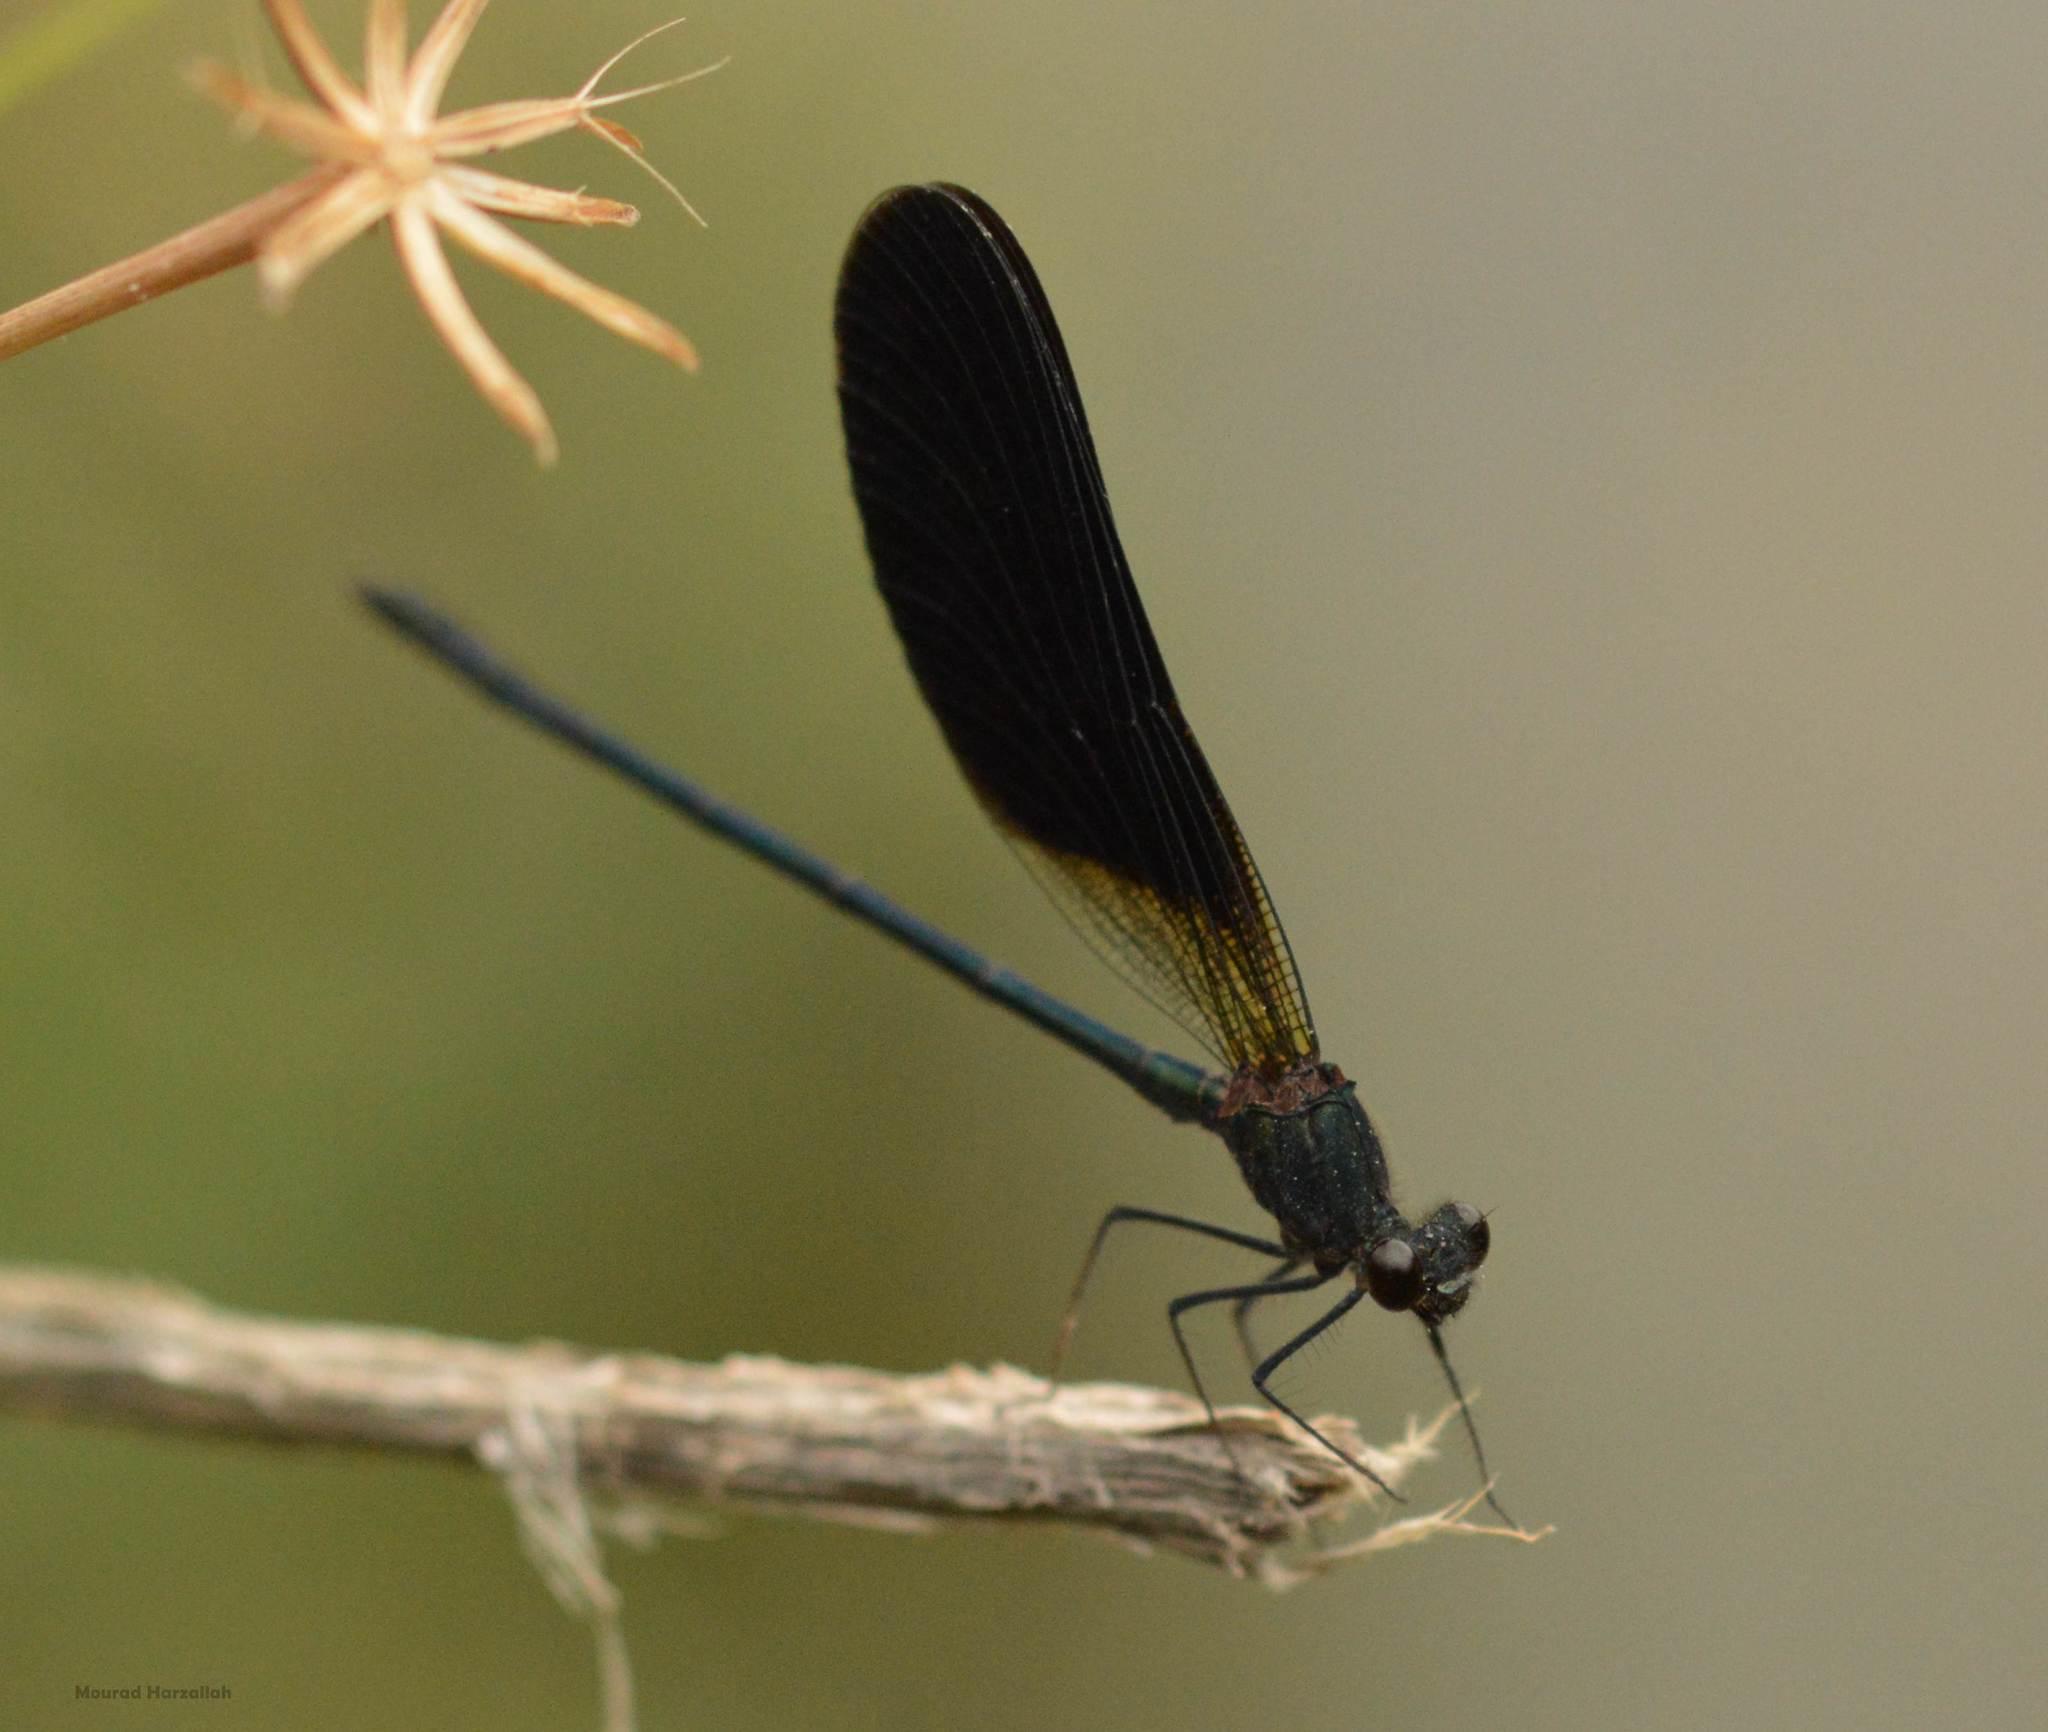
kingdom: Animalia
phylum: Arthropoda
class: Insecta
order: Odonata
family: Calopterygidae
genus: Calopteryx
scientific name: Calopteryx haemorrhoidalis
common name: Copper demoiselle
